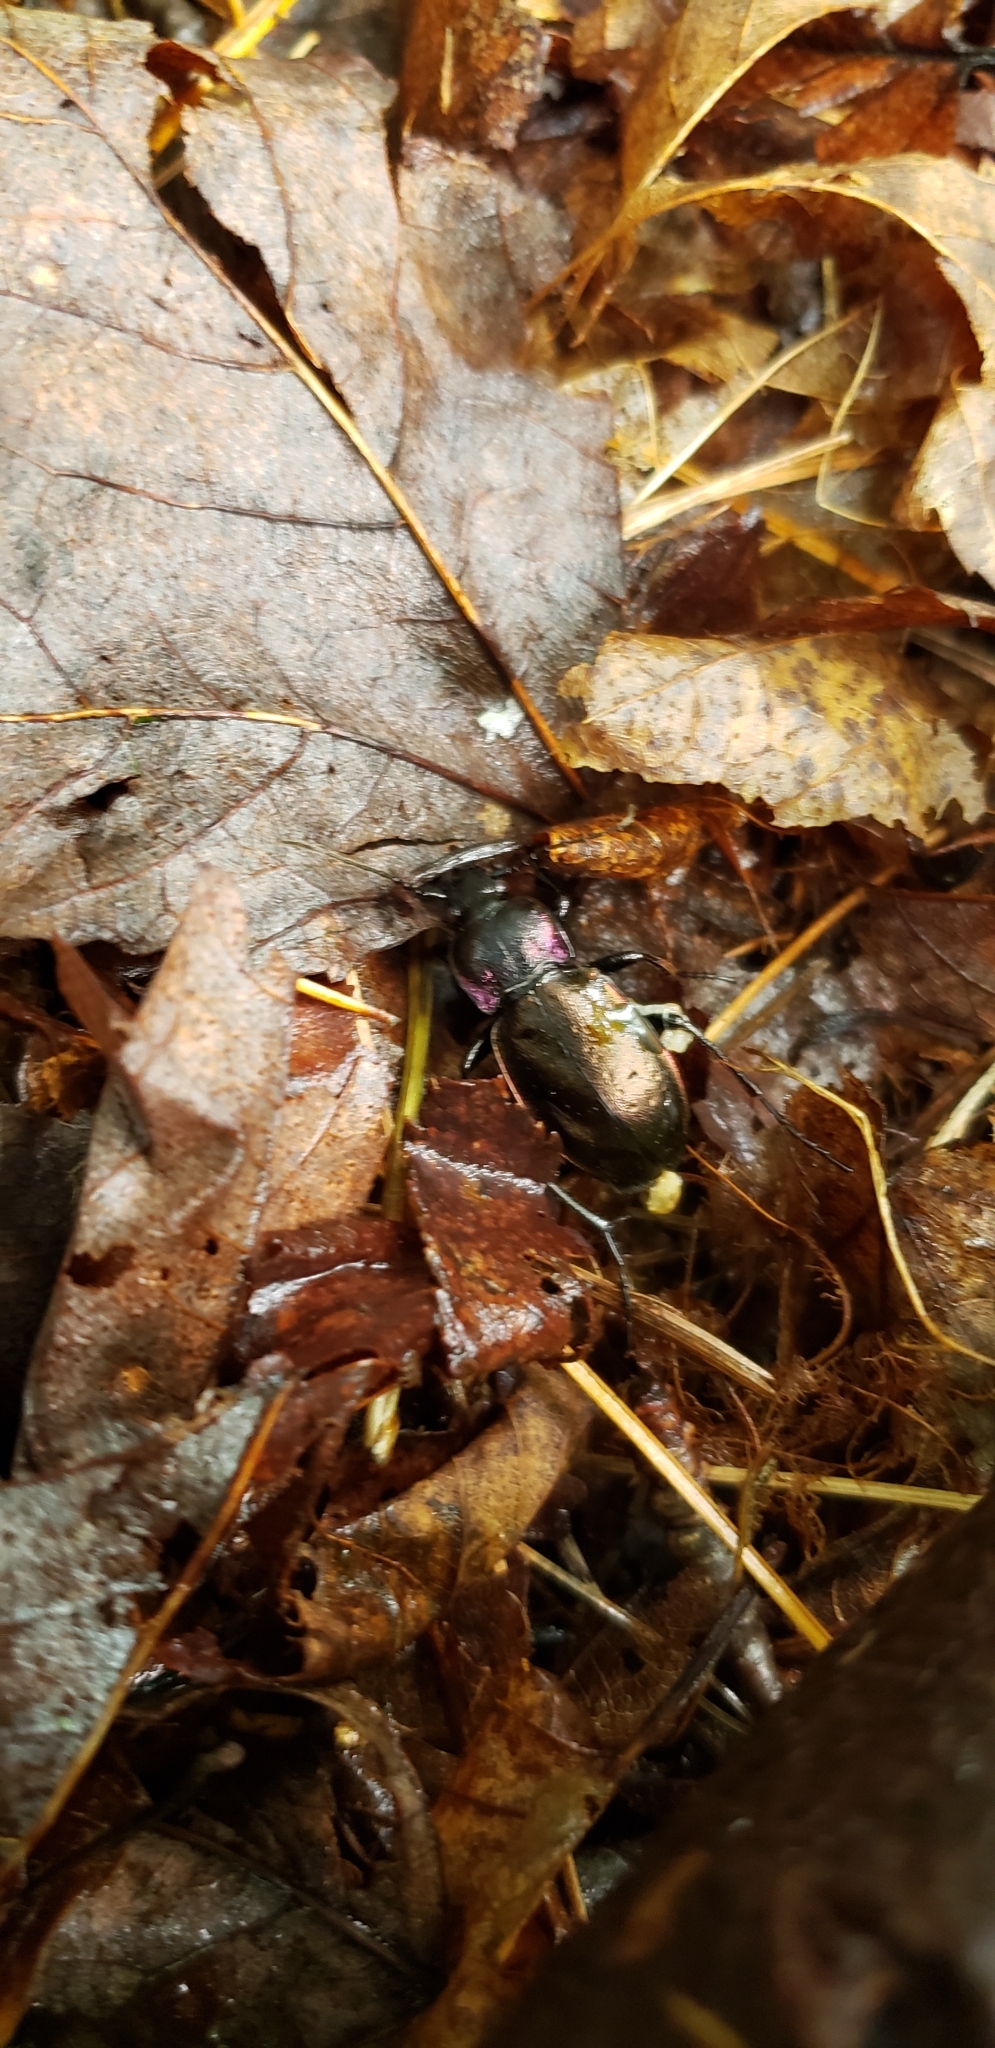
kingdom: Animalia
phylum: Arthropoda
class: Insecta
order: Coleoptera
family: Carabidae
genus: Carabus
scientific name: Carabus nemoralis
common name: European ground beetle
